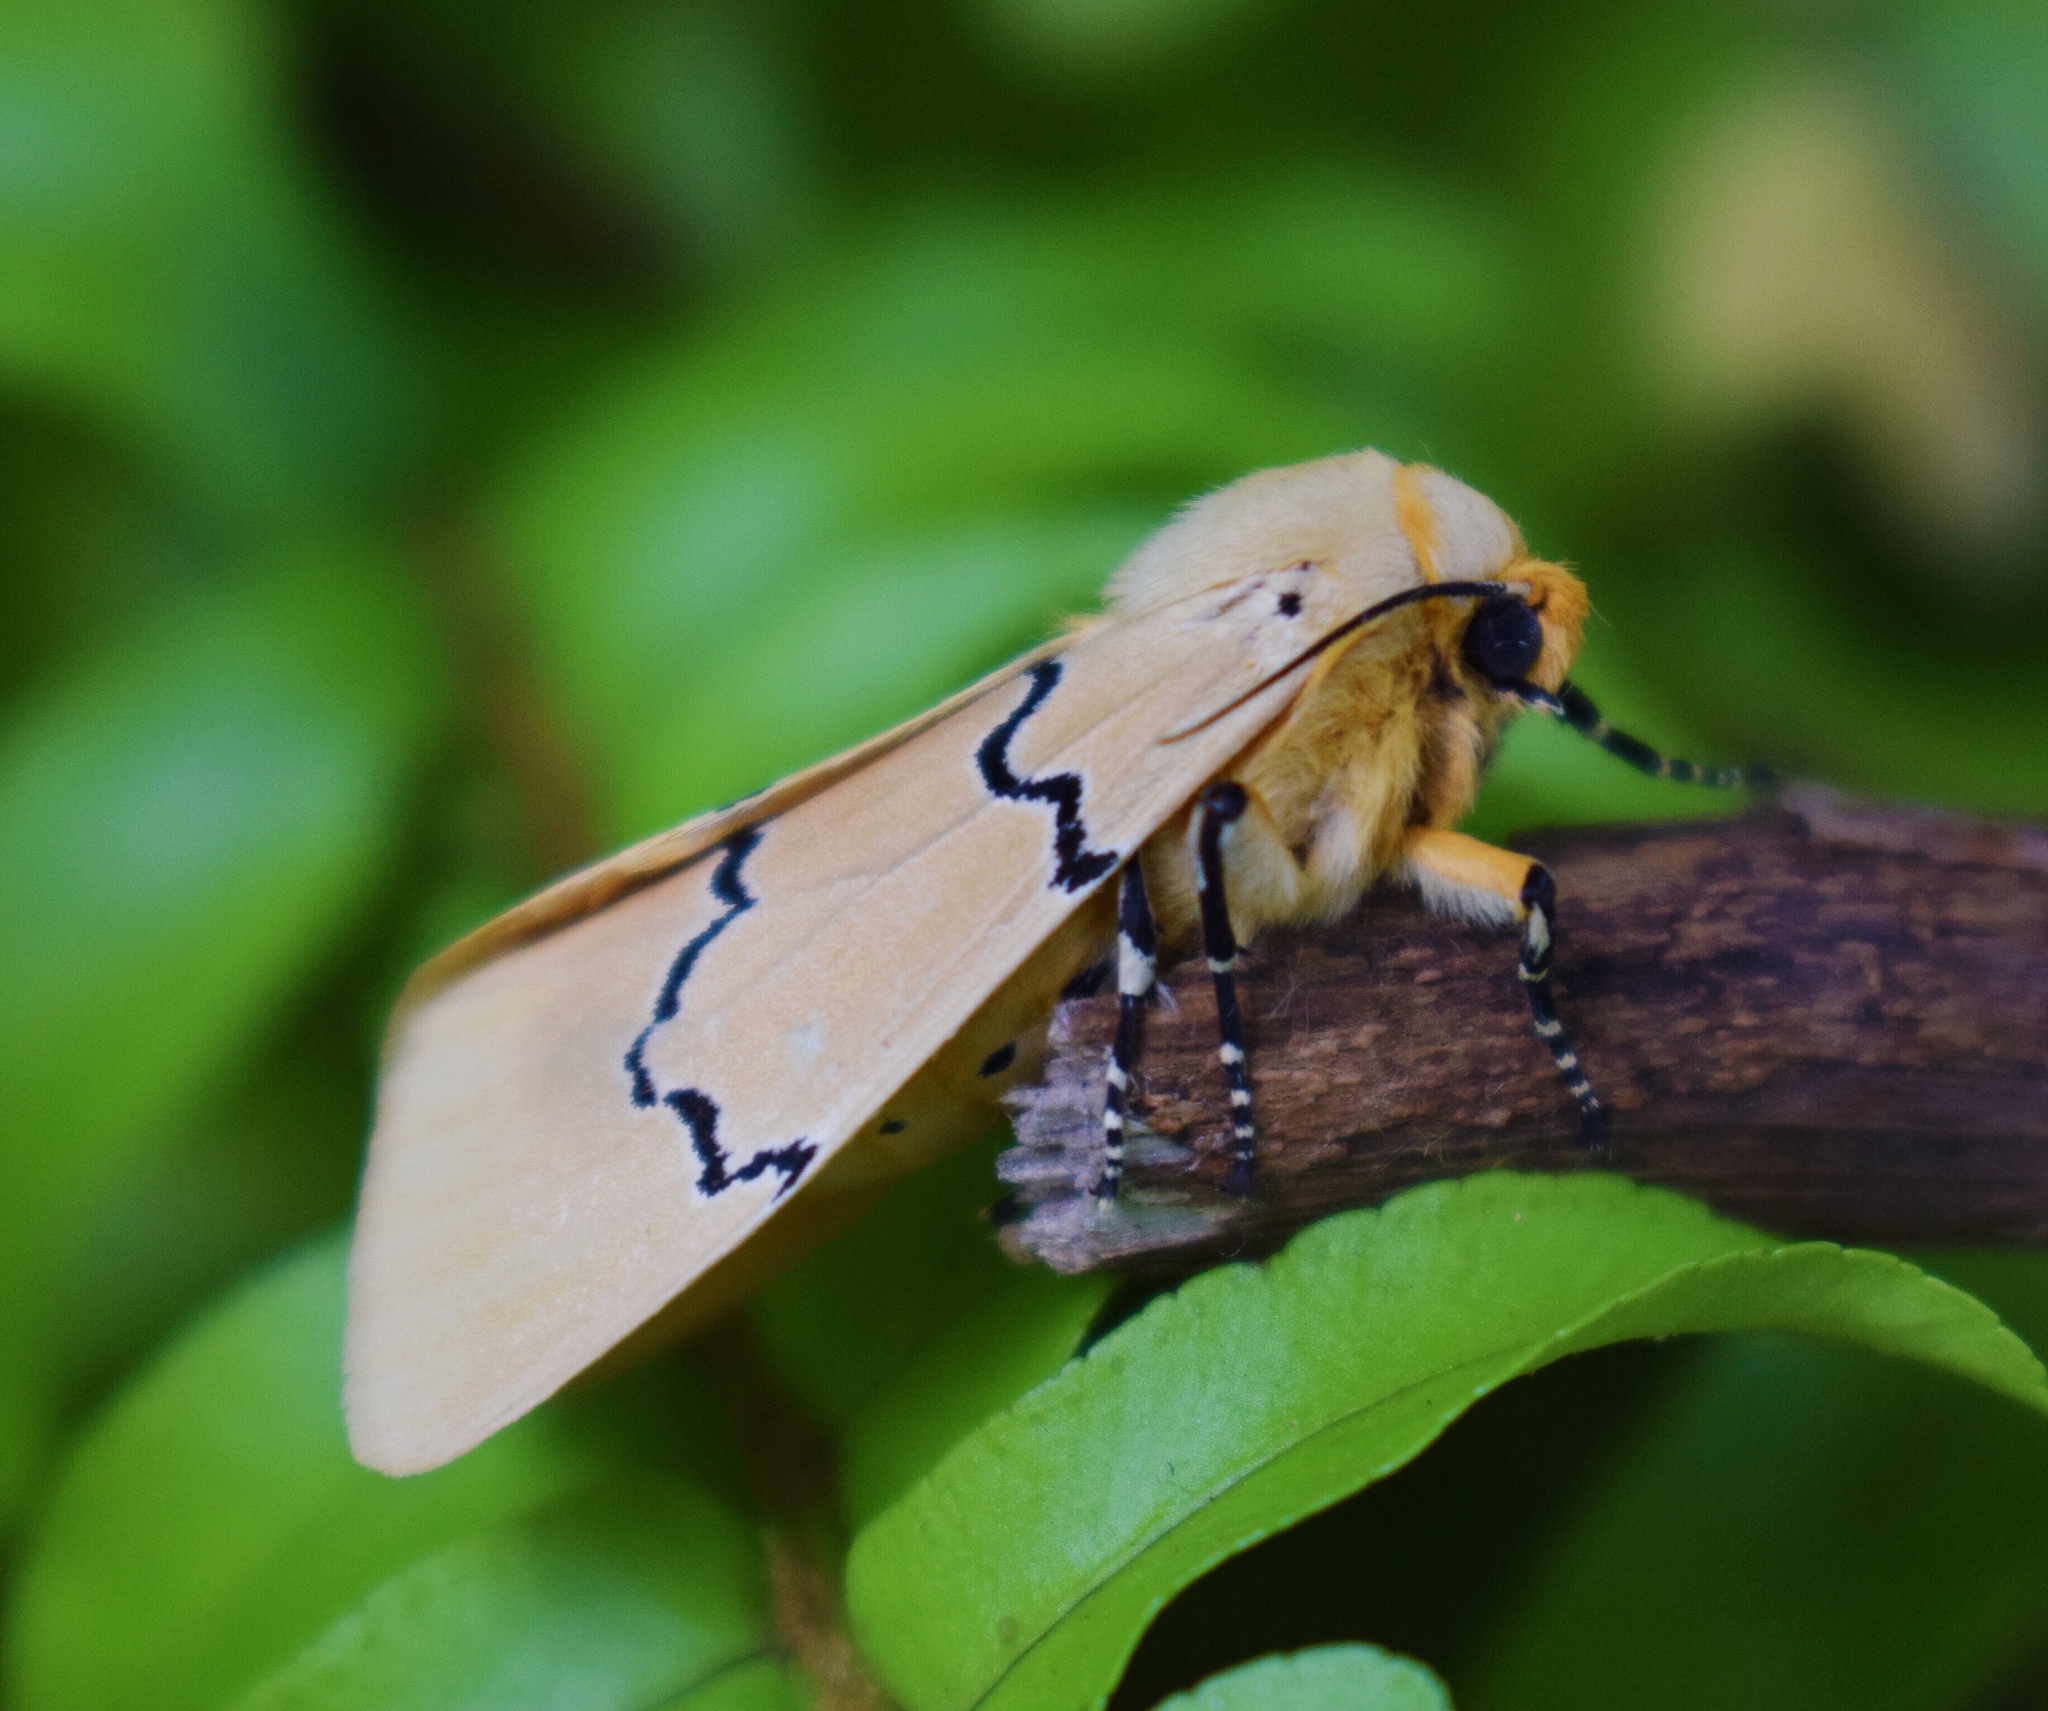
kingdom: Animalia
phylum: Arthropoda
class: Insecta
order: Lepidoptera
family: Erebidae
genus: Leucaloa
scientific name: Leucaloa eugraphica
